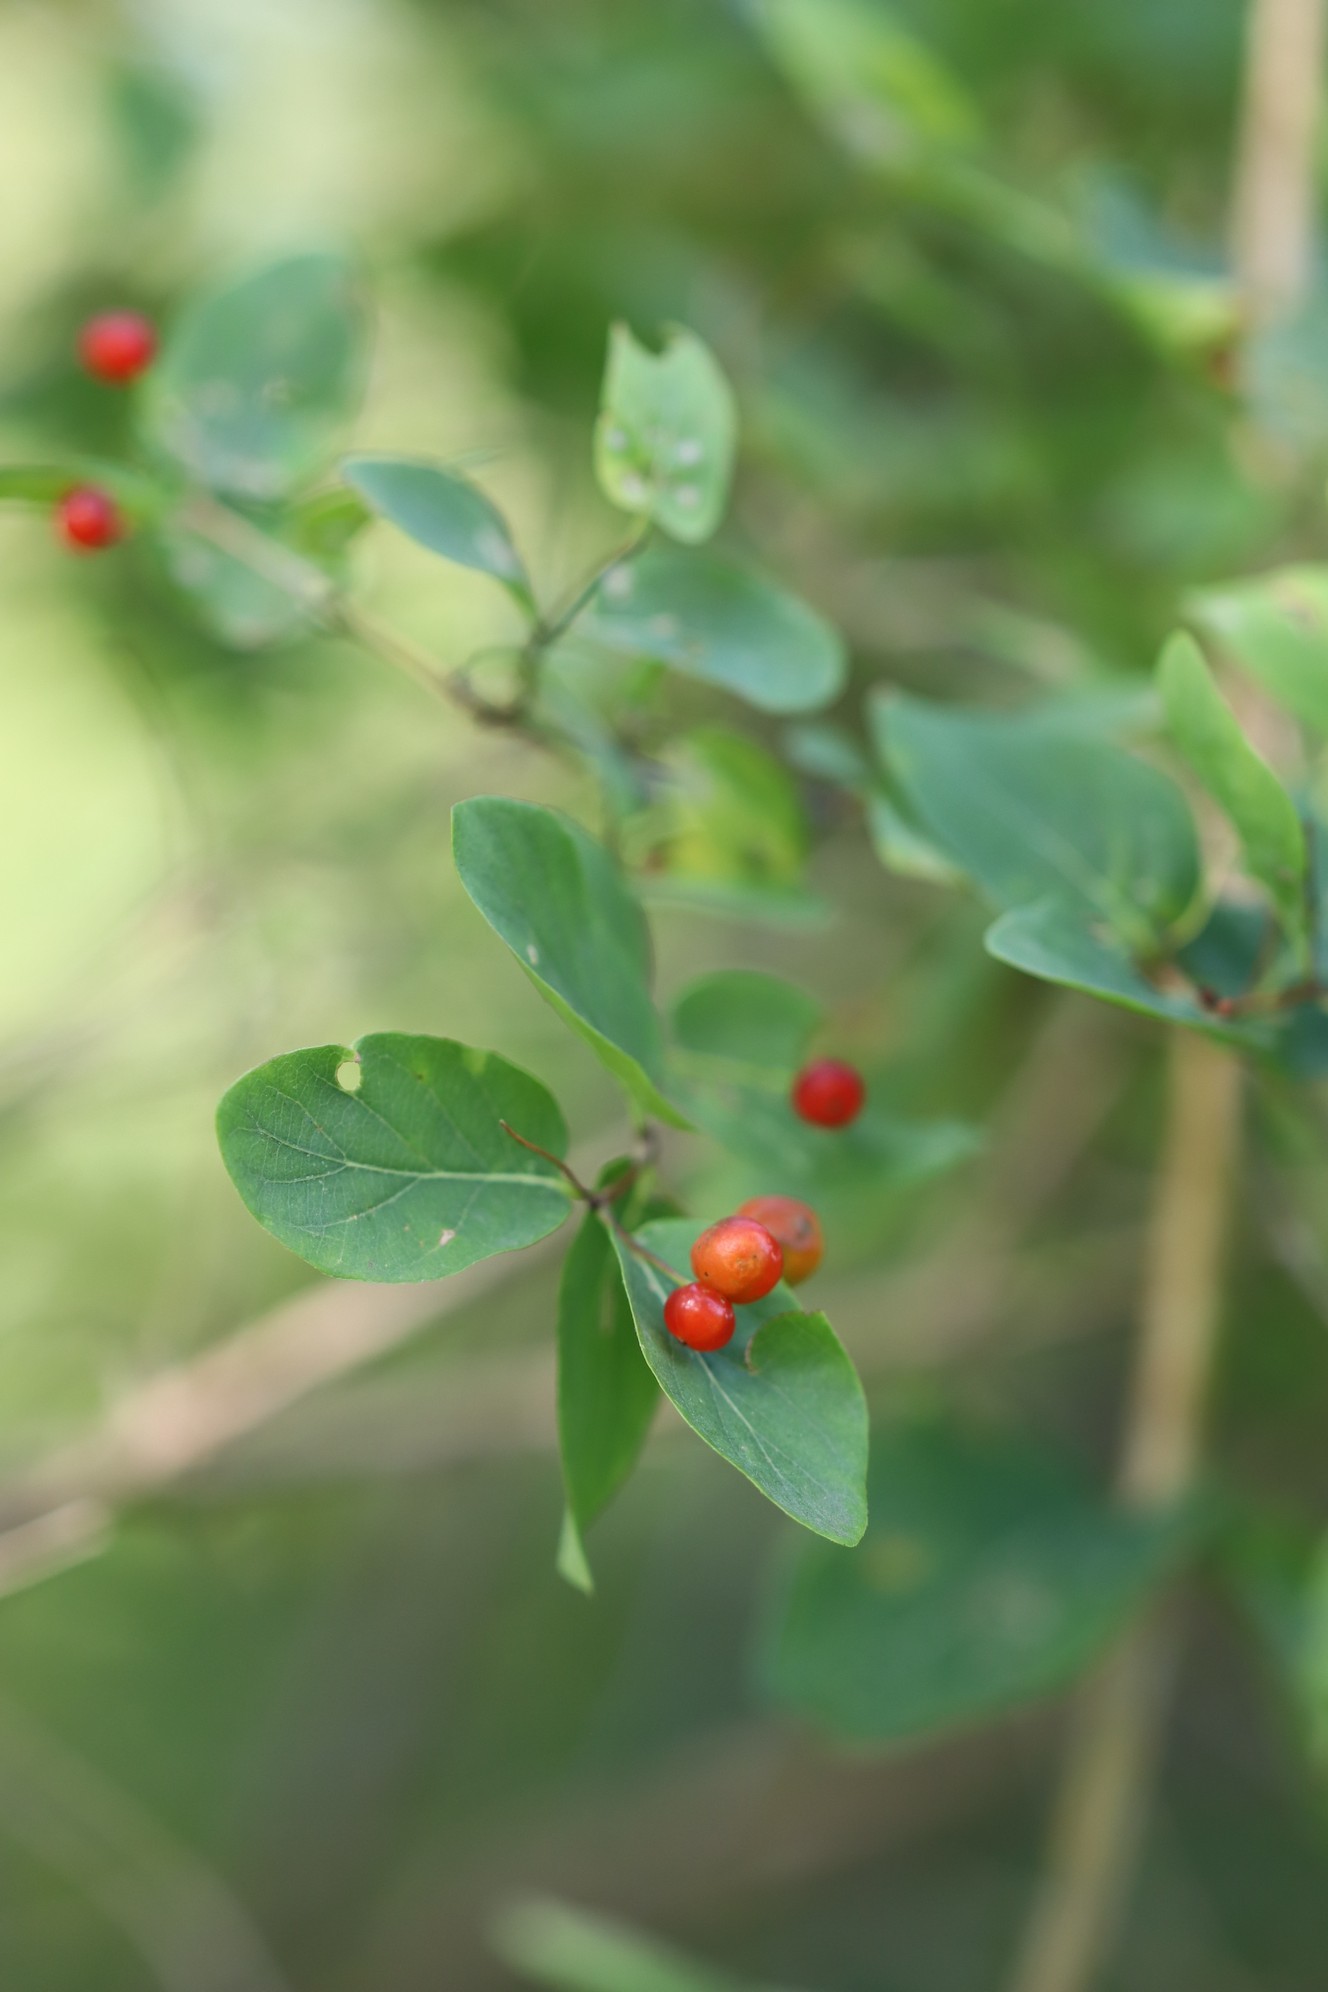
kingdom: Plantae
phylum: Tracheophyta
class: Magnoliopsida
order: Dipsacales
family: Caprifoliaceae
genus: Lonicera
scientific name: Lonicera tatarica
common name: Tatarian honeysuckle
